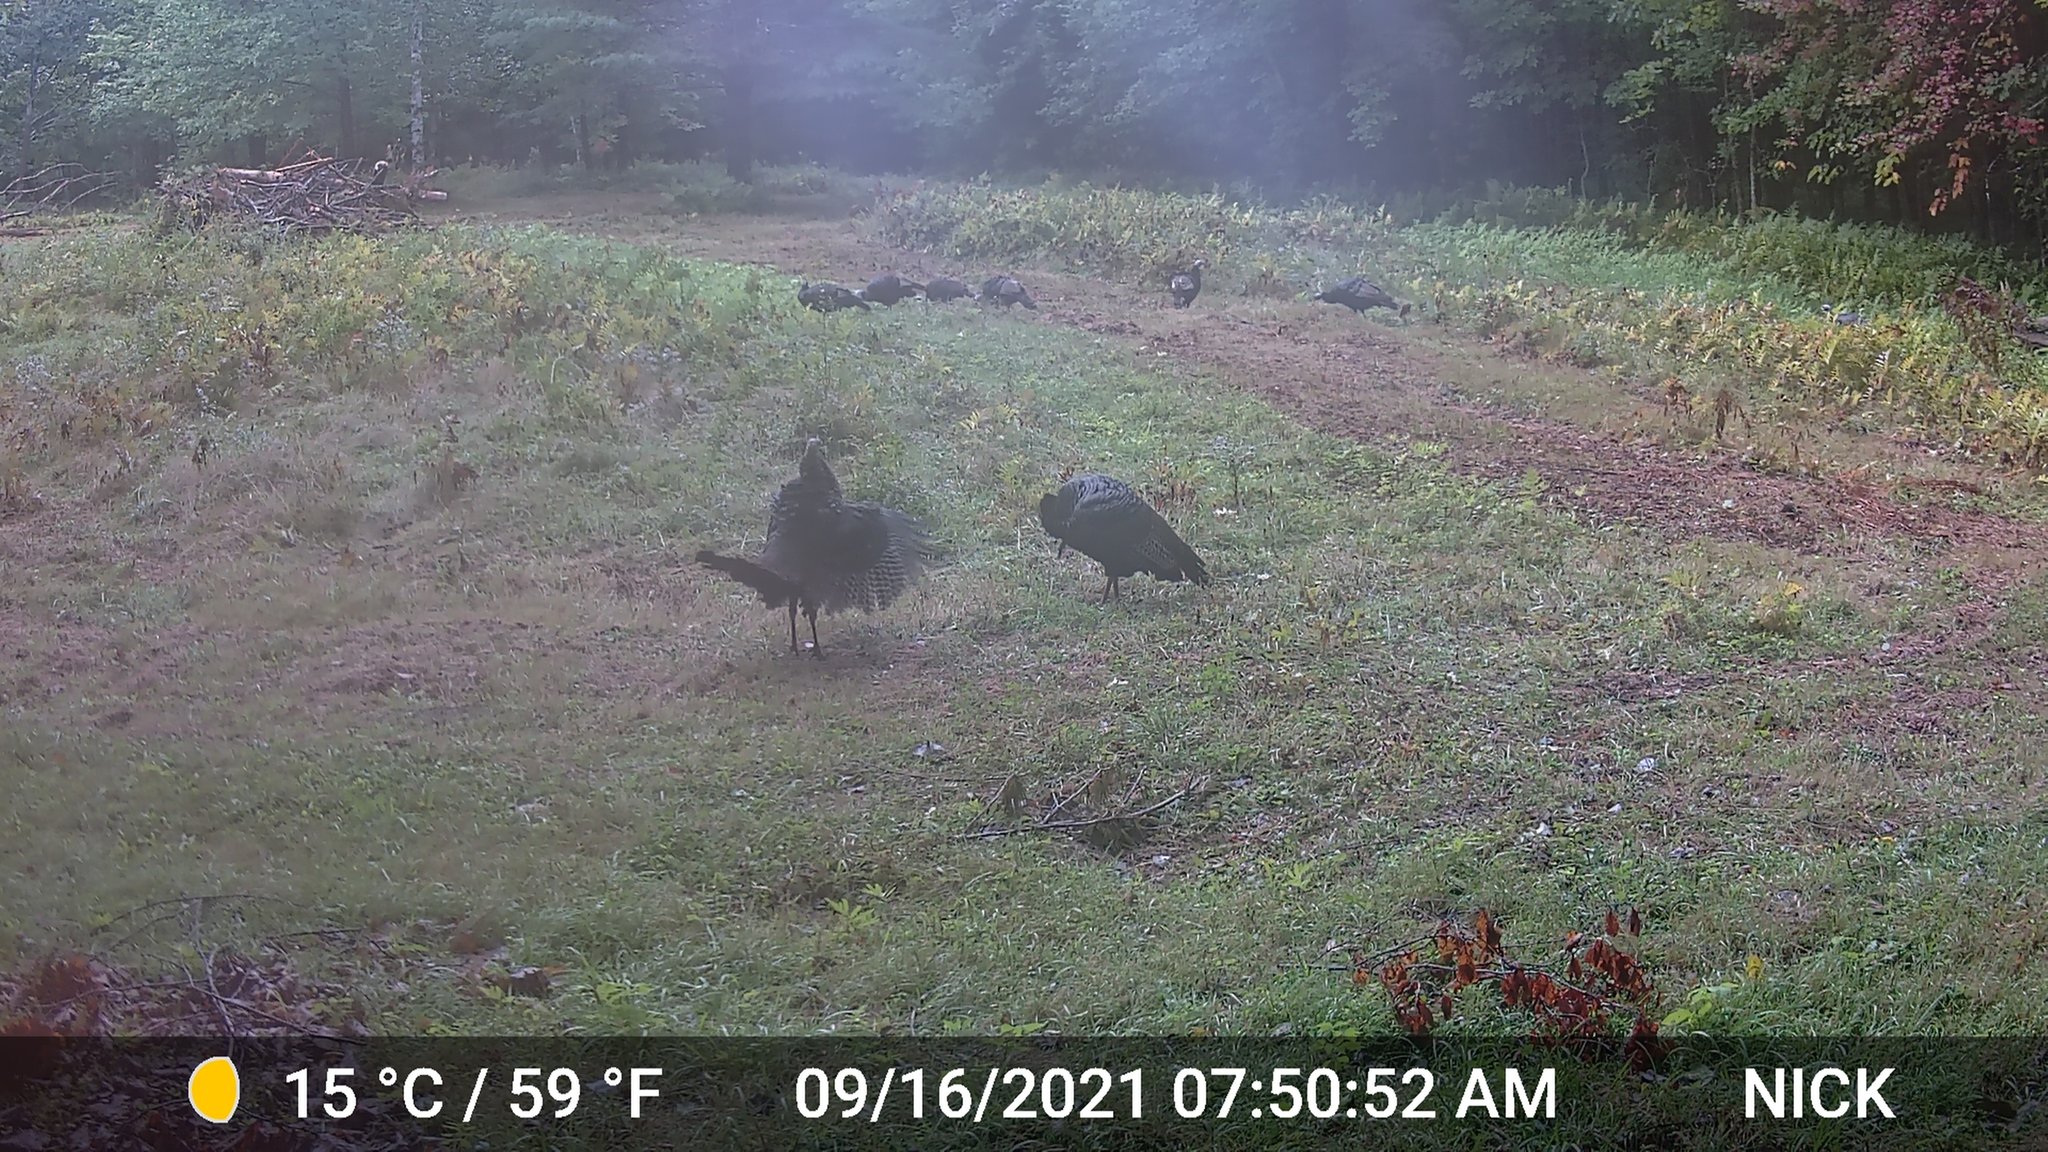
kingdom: Animalia
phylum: Chordata
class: Aves
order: Galliformes
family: Phasianidae
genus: Meleagris
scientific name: Meleagris gallopavo
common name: Wild turkey
